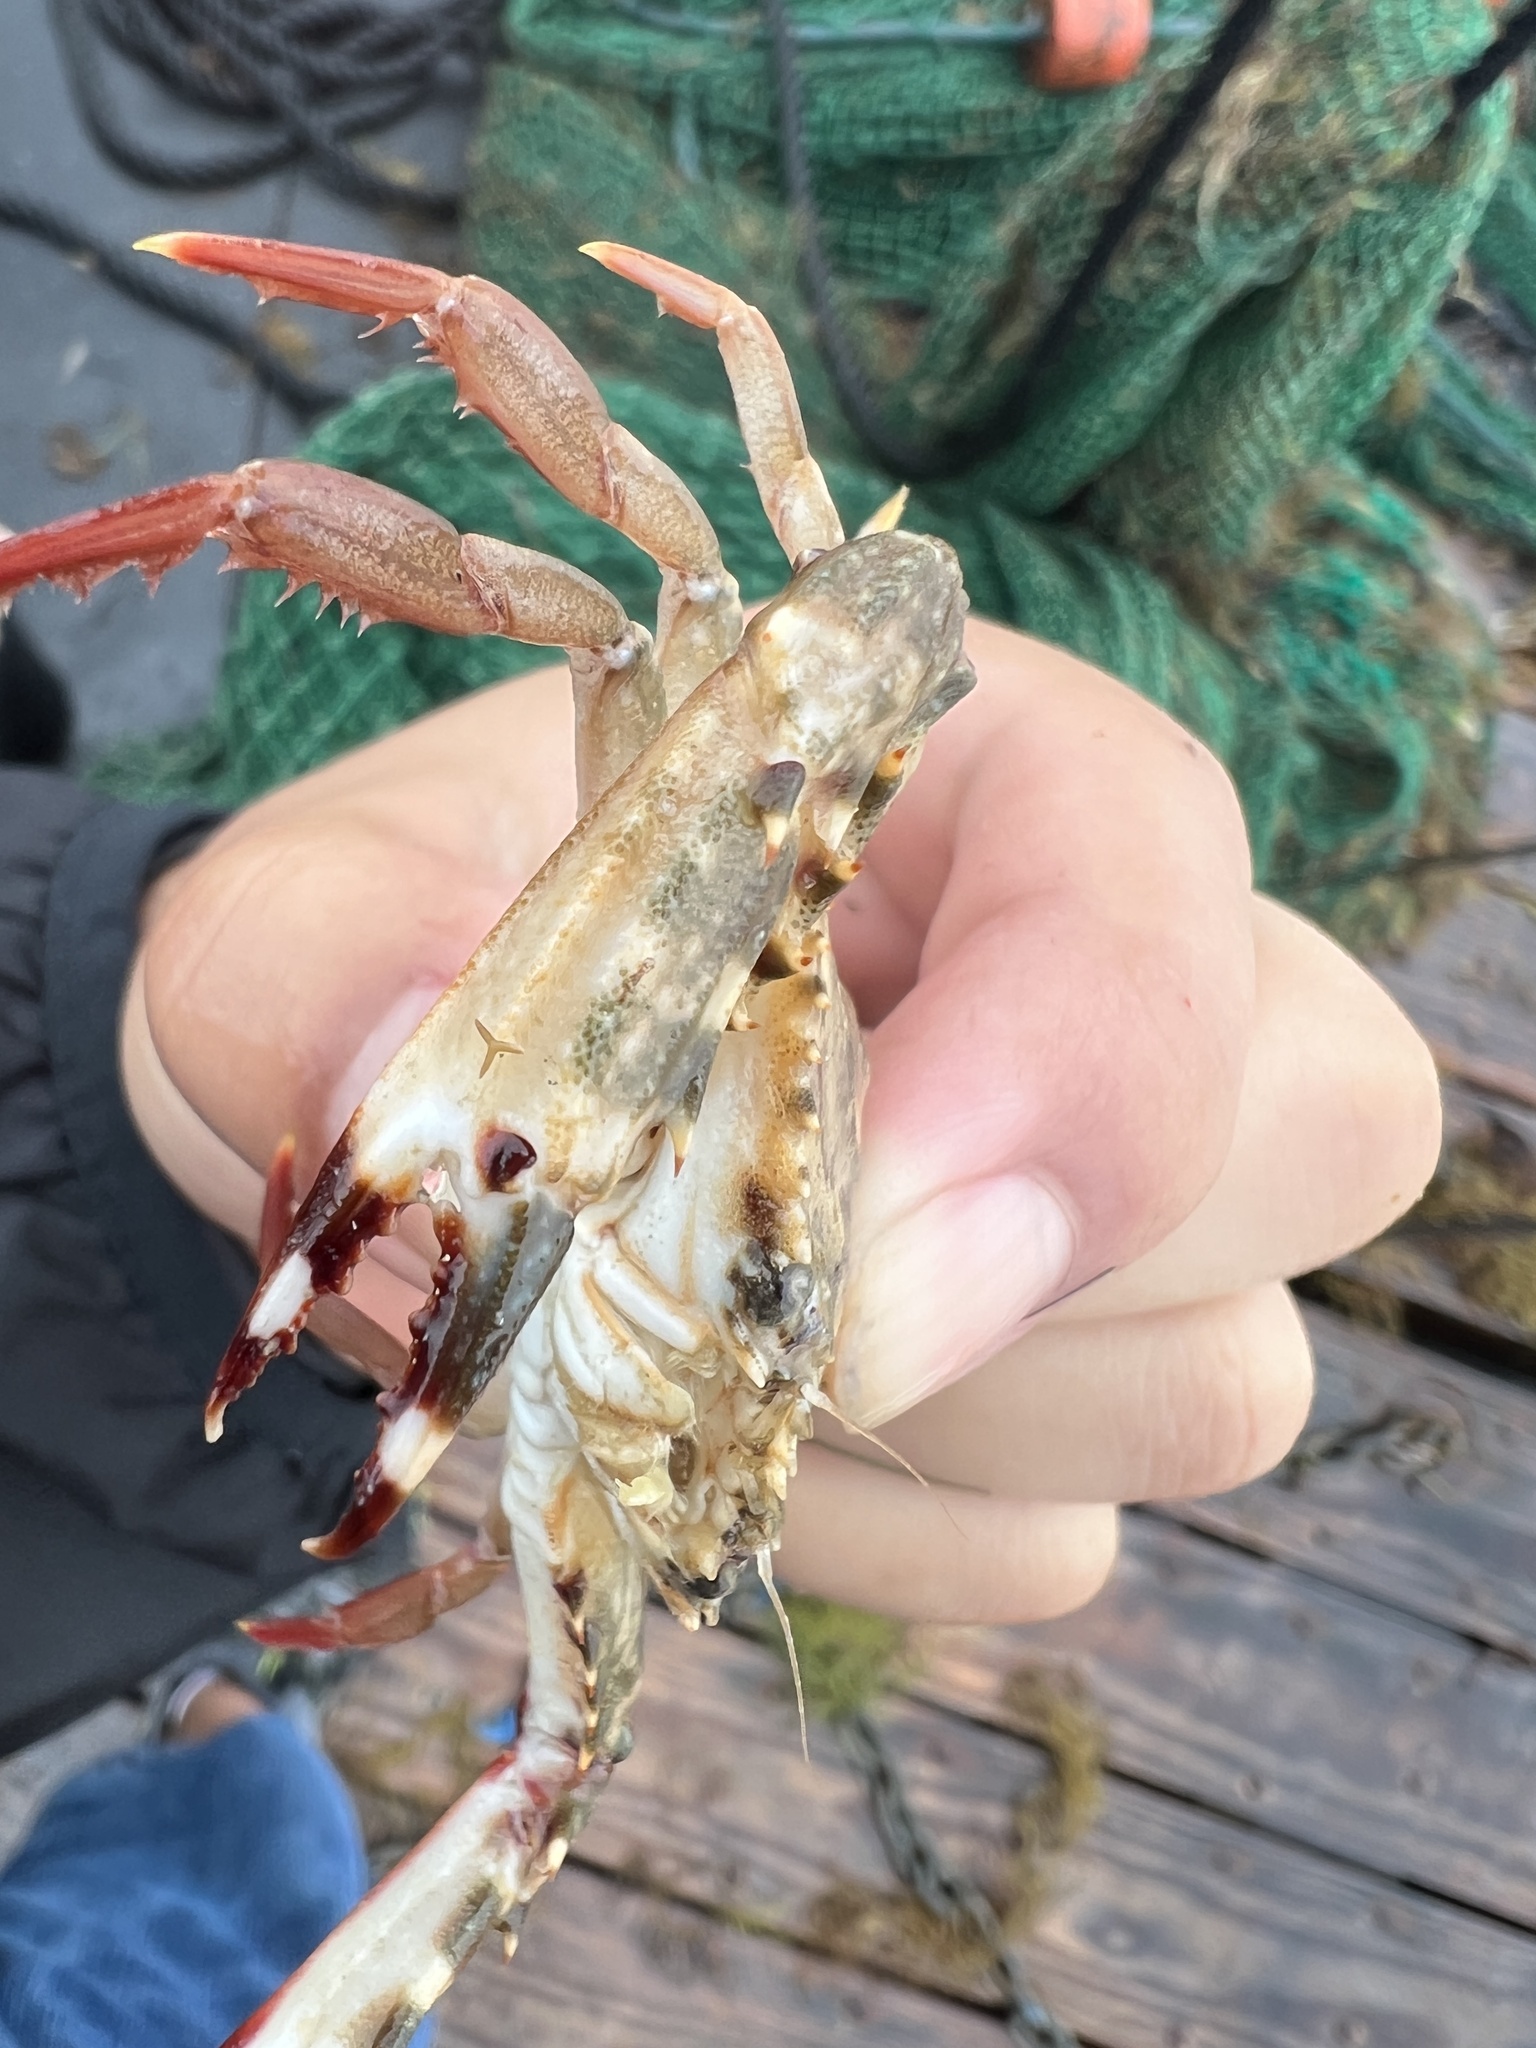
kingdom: Animalia
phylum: Arthropoda
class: Malacostraca
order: Decapoda
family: Portunidae
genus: Achelous
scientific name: Achelous spinimanus
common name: Spiny-handed portunus
